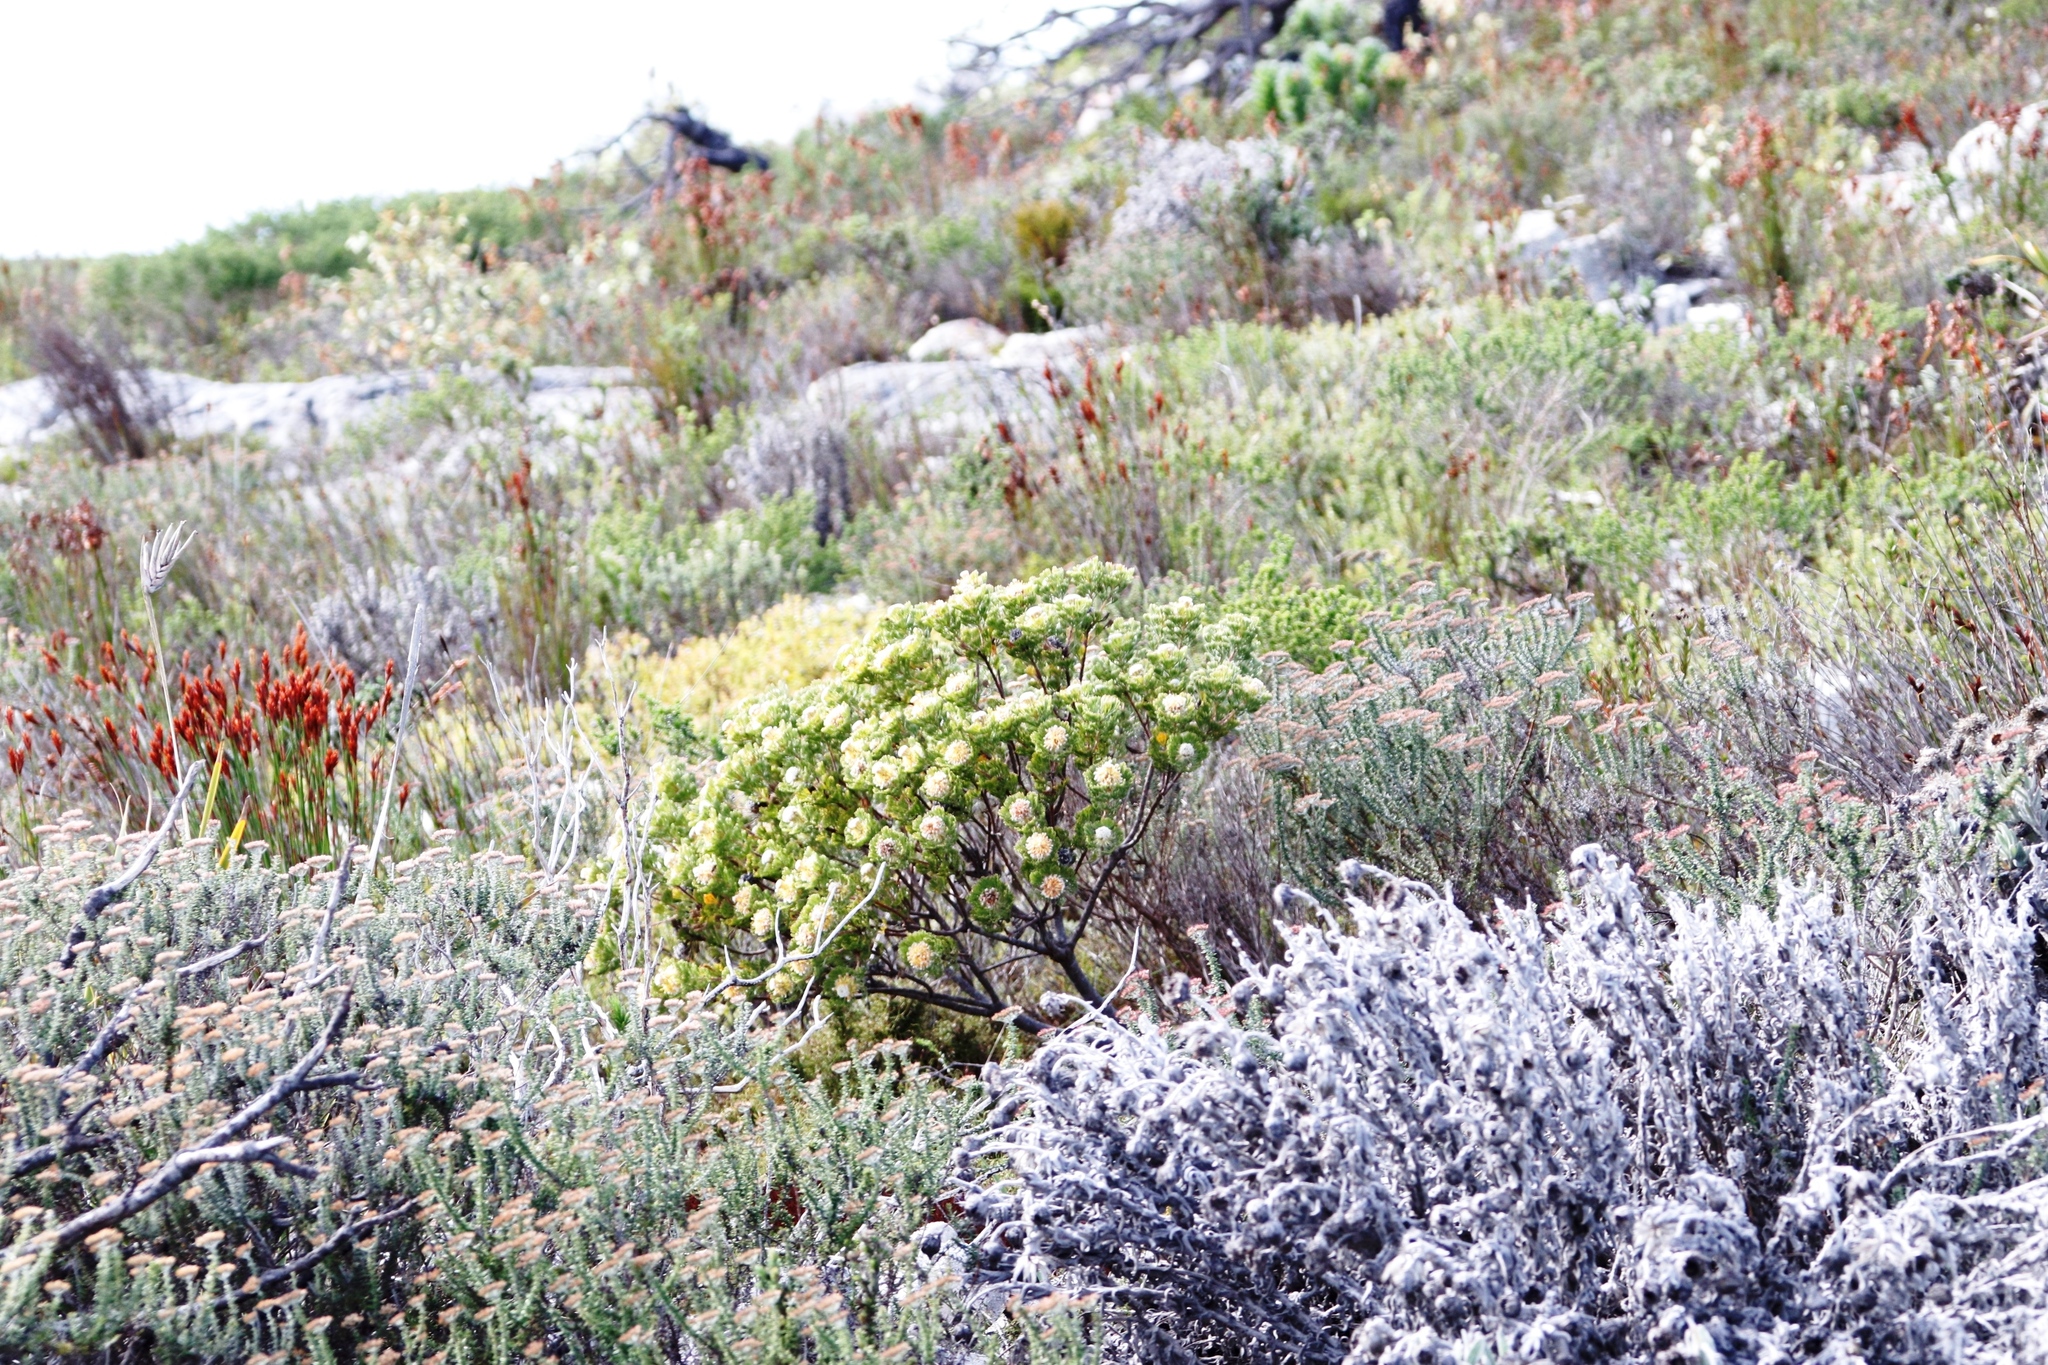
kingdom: Plantae
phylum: Tracheophyta
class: Magnoliopsida
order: Proteales
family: Proteaceae
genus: Serruria
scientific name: Serruria villosa
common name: Golden spiderhead
